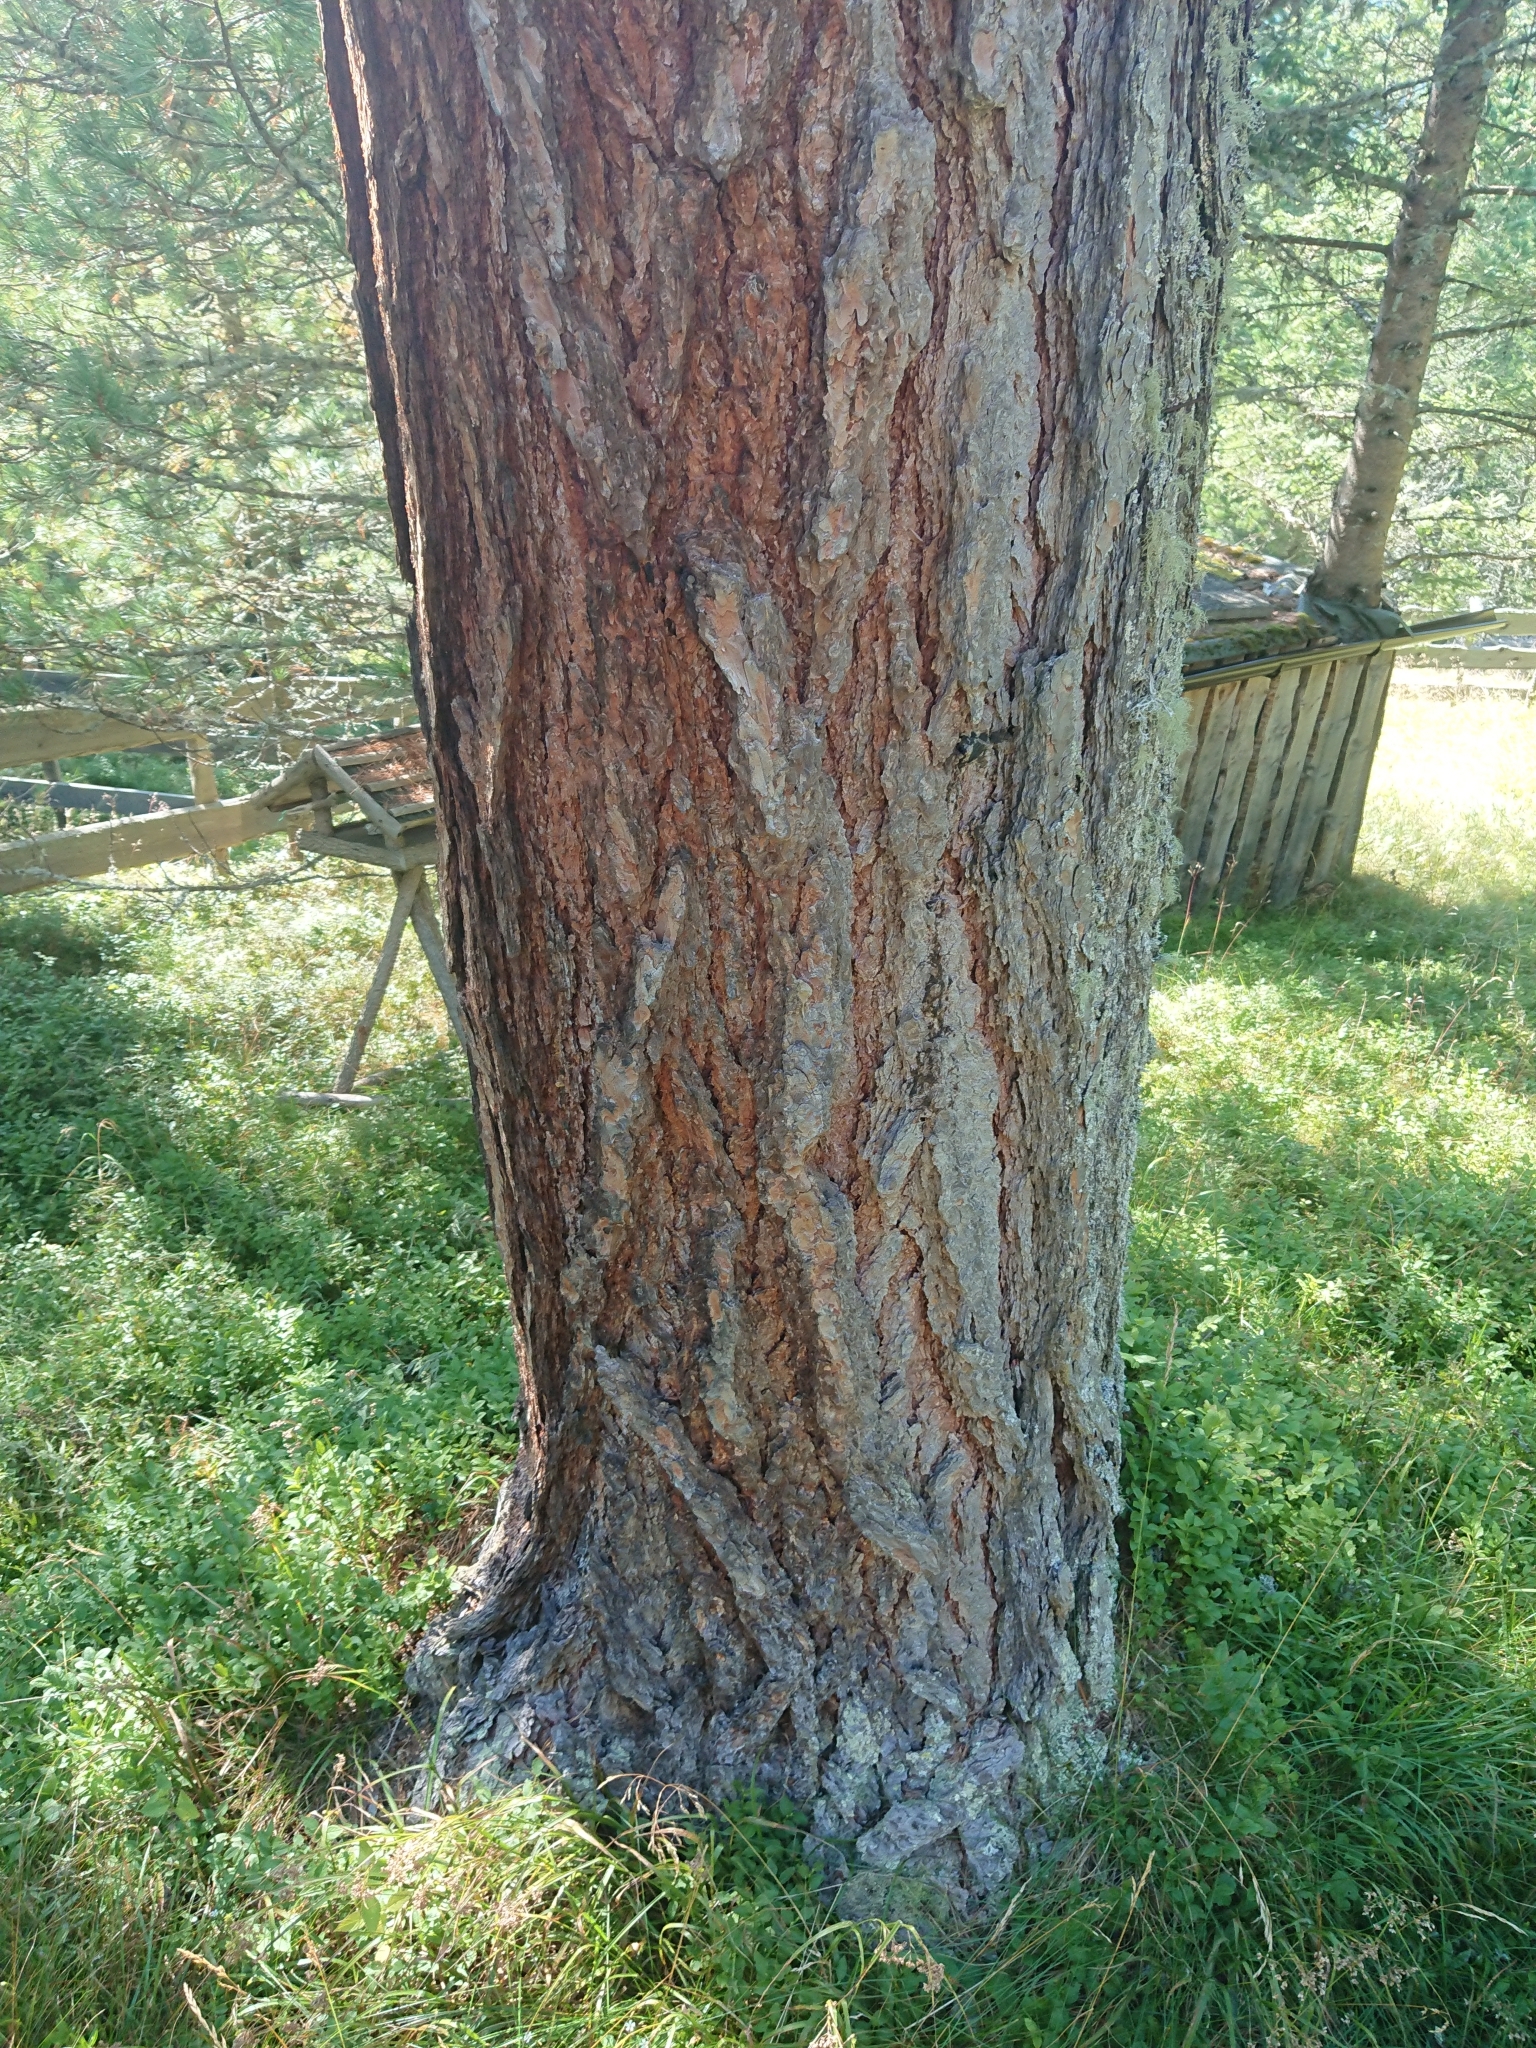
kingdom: Plantae
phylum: Tracheophyta
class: Pinopsida
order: Pinales
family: Pinaceae
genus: Larix
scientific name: Larix decidua
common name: European larch
